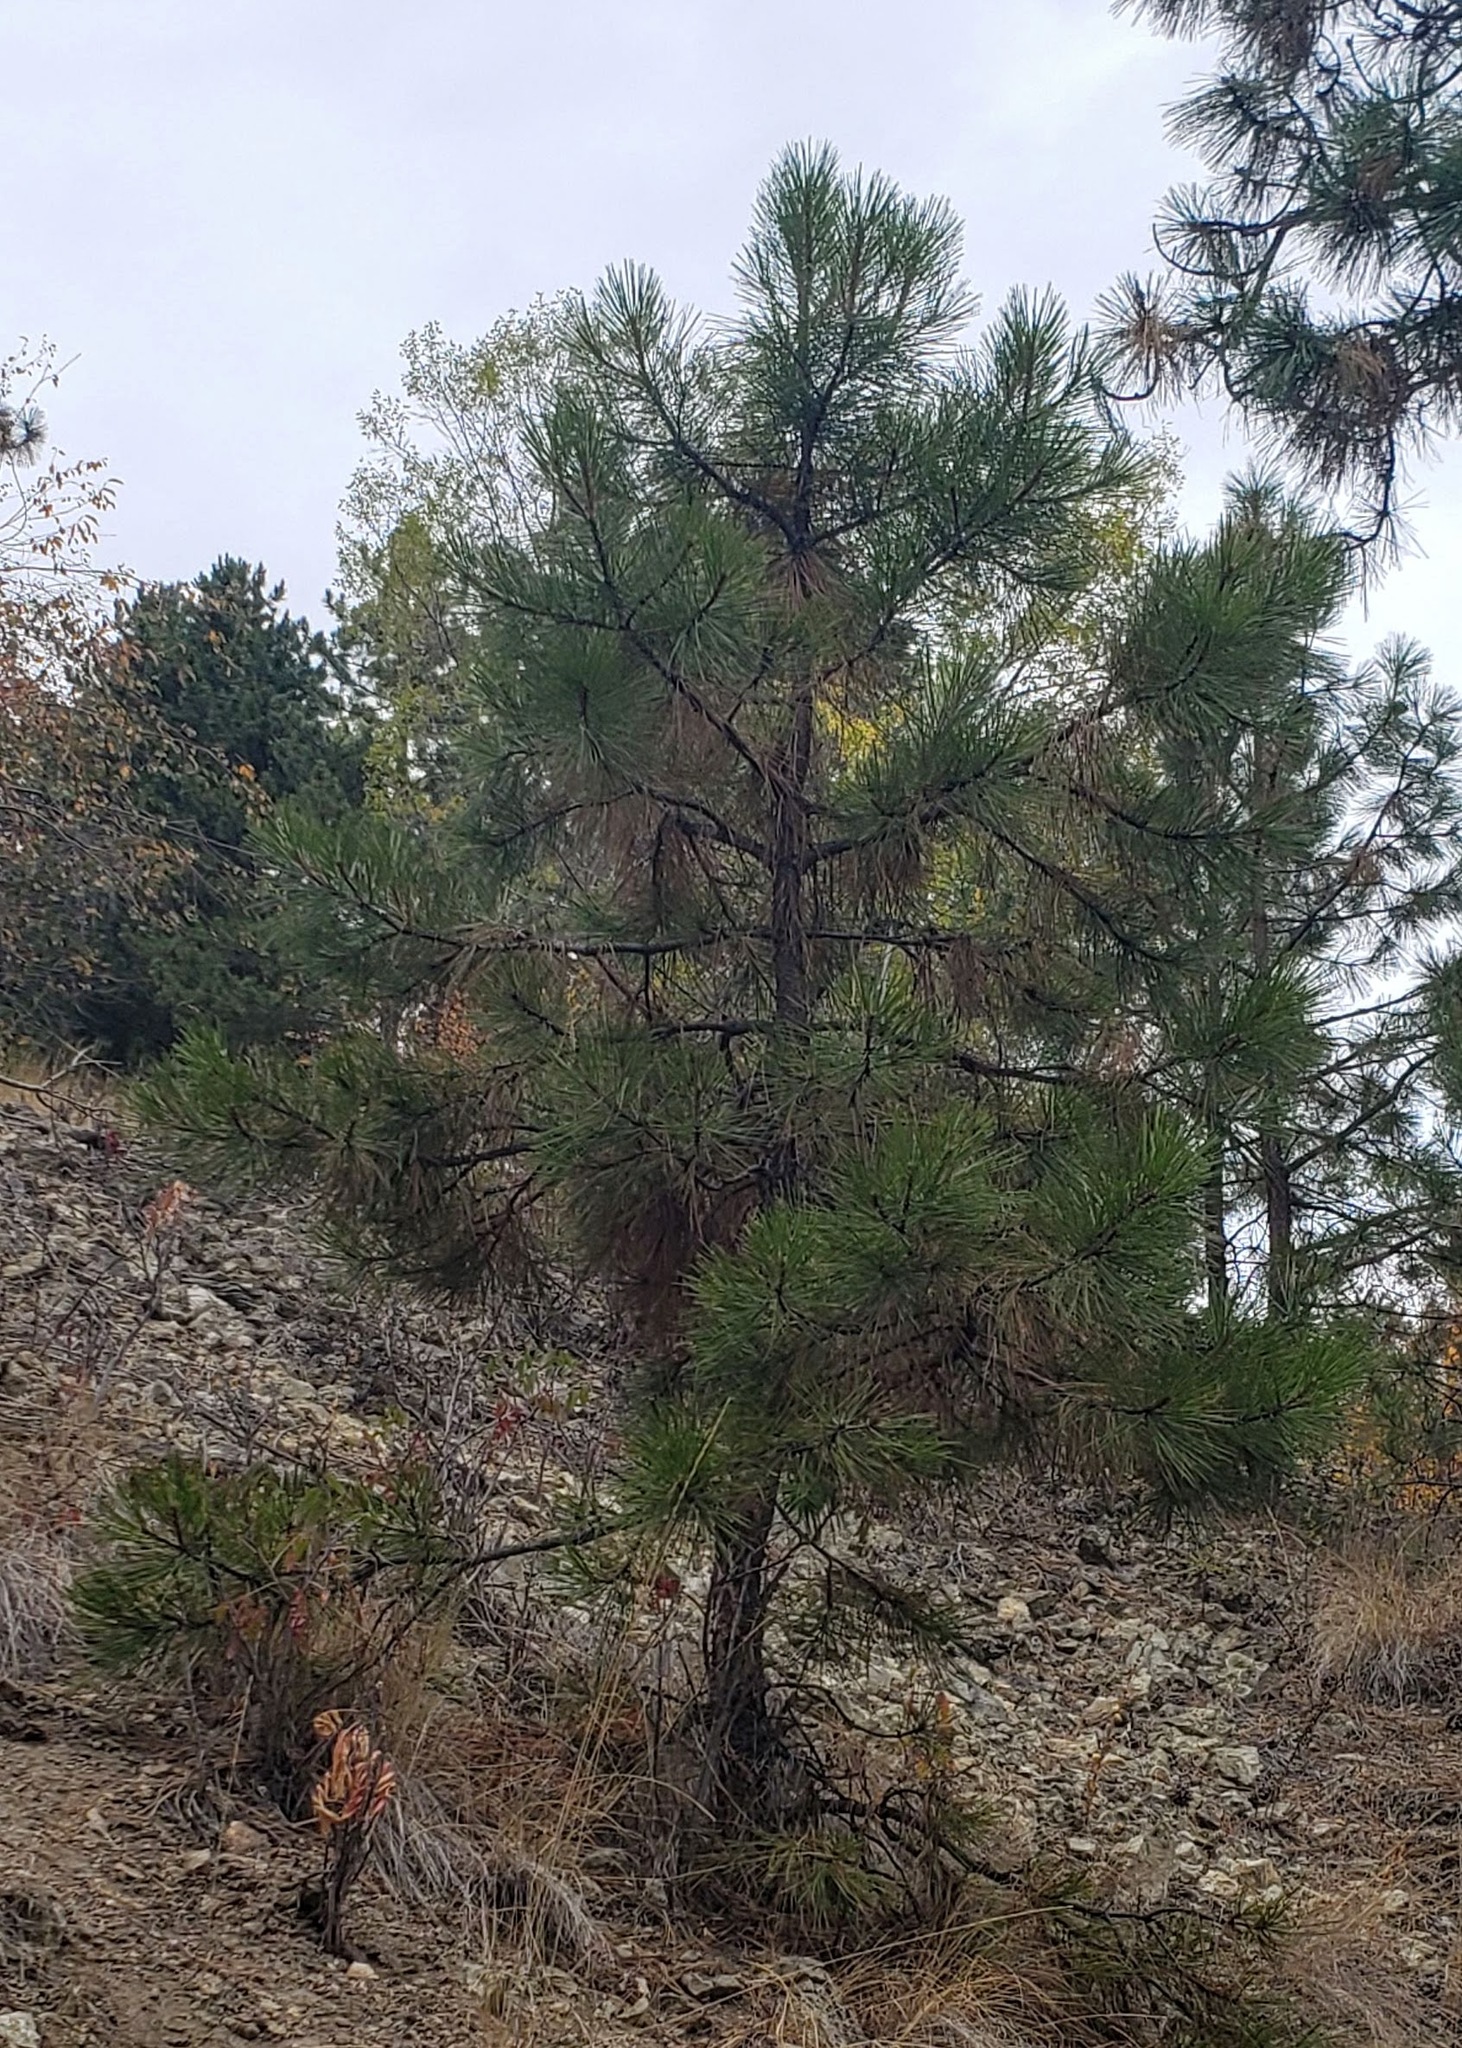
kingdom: Plantae
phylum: Tracheophyta
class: Pinopsida
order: Pinales
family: Pinaceae
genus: Pinus
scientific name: Pinus ponderosa
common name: Western yellow-pine
